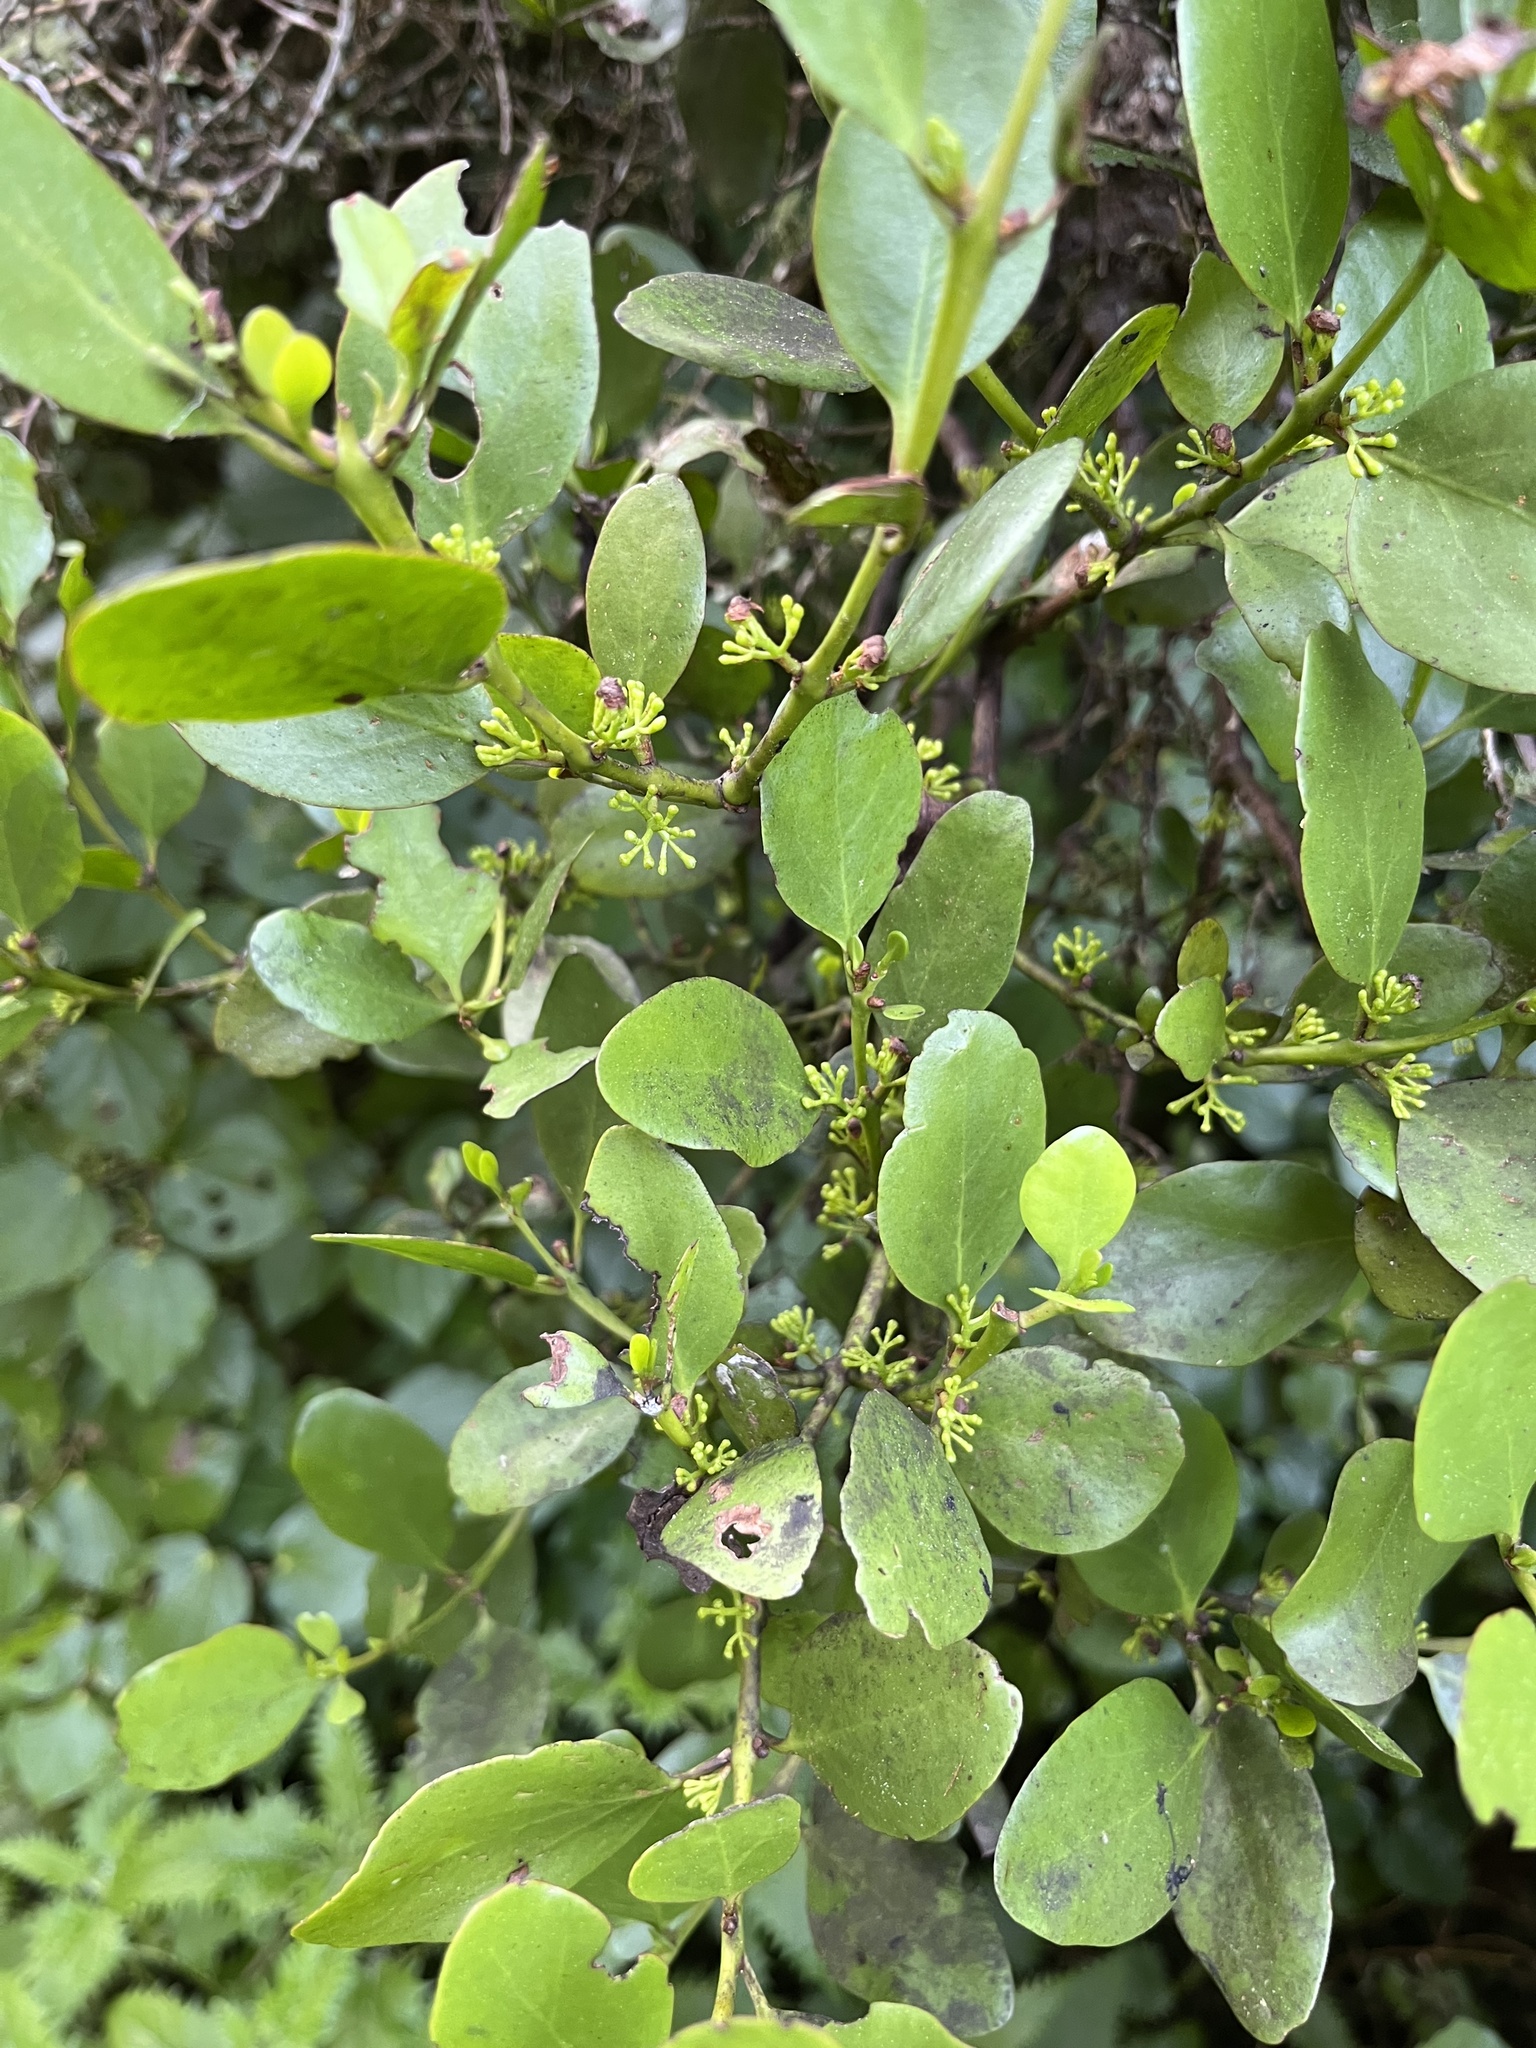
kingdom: Plantae
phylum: Tracheophyta
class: Magnoliopsida
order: Santalales
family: Loranthaceae
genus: Ileostylus
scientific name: Ileostylus micranthus
